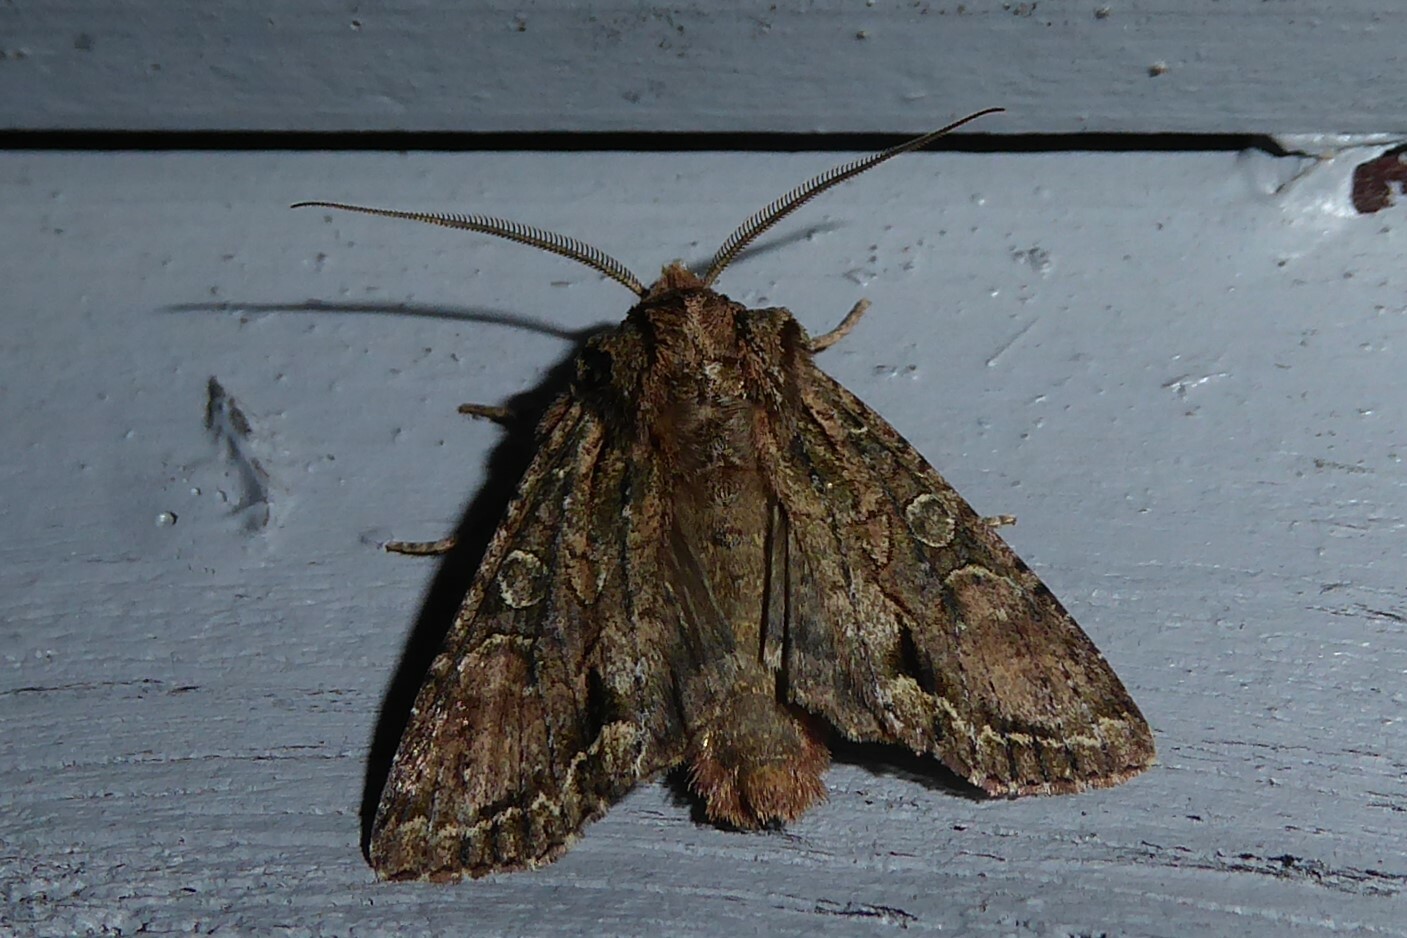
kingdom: Animalia
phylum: Arthropoda
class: Insecta
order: Lepidoptera
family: Noctuidae
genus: Ichneutica
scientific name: Ichneutica mutans
